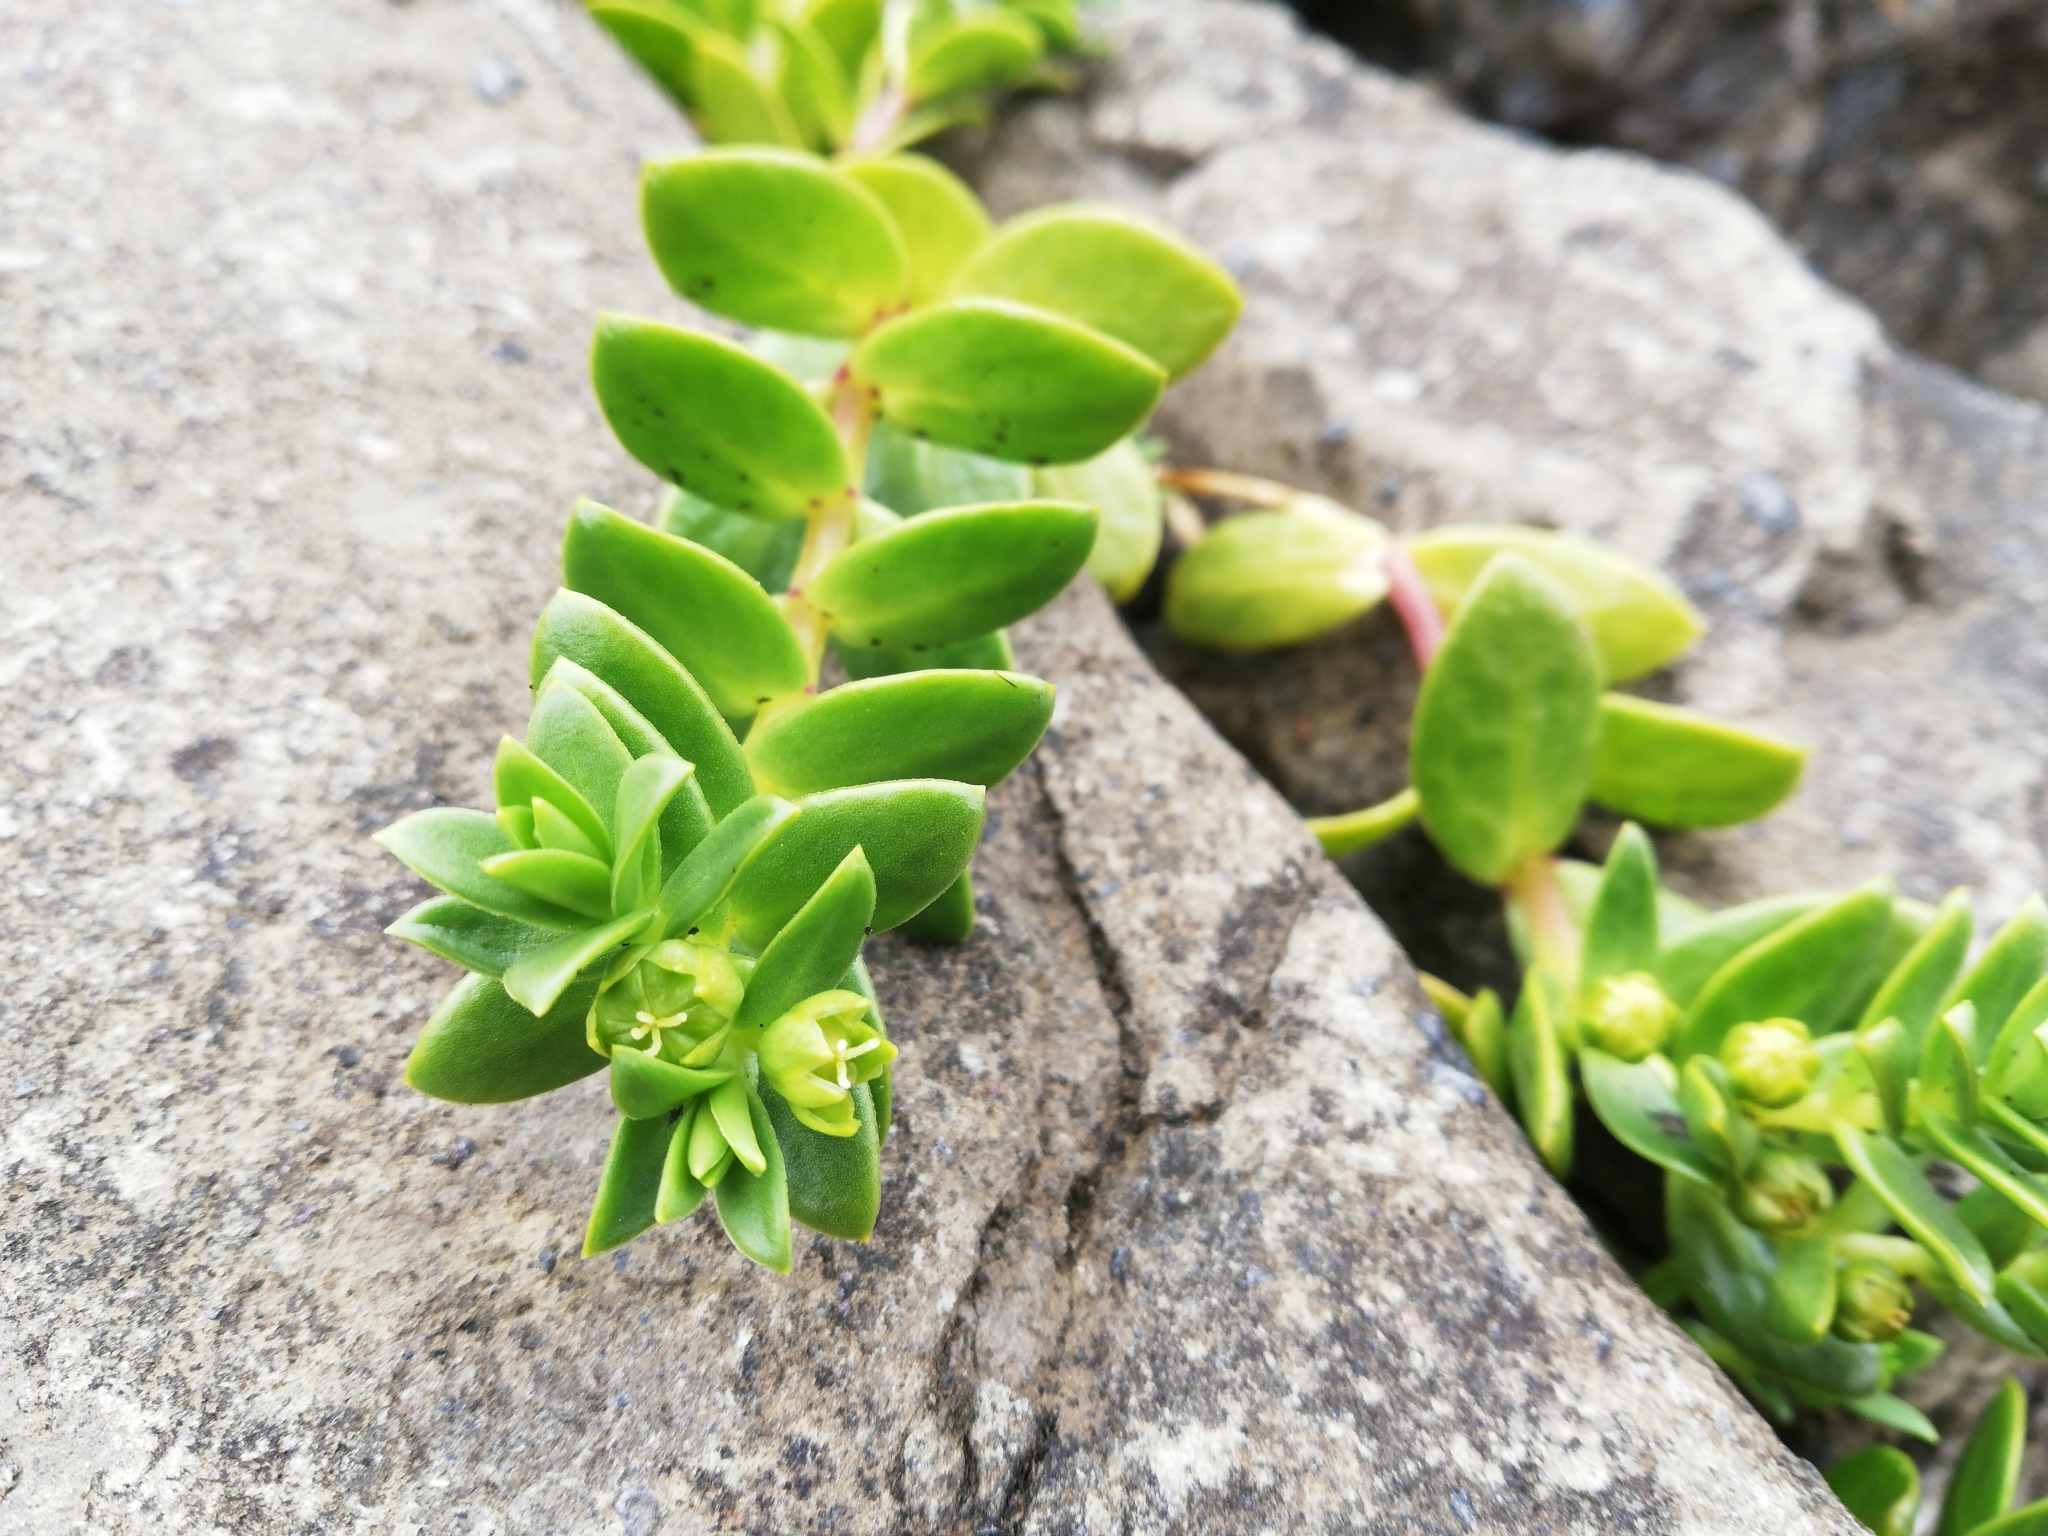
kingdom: Plantae
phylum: Tracheophyta
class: Magnoliopsida
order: Caryophyllales
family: Caryophyllaceae
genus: Honckenya
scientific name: Honckenya peploides
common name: Sea sandwort
